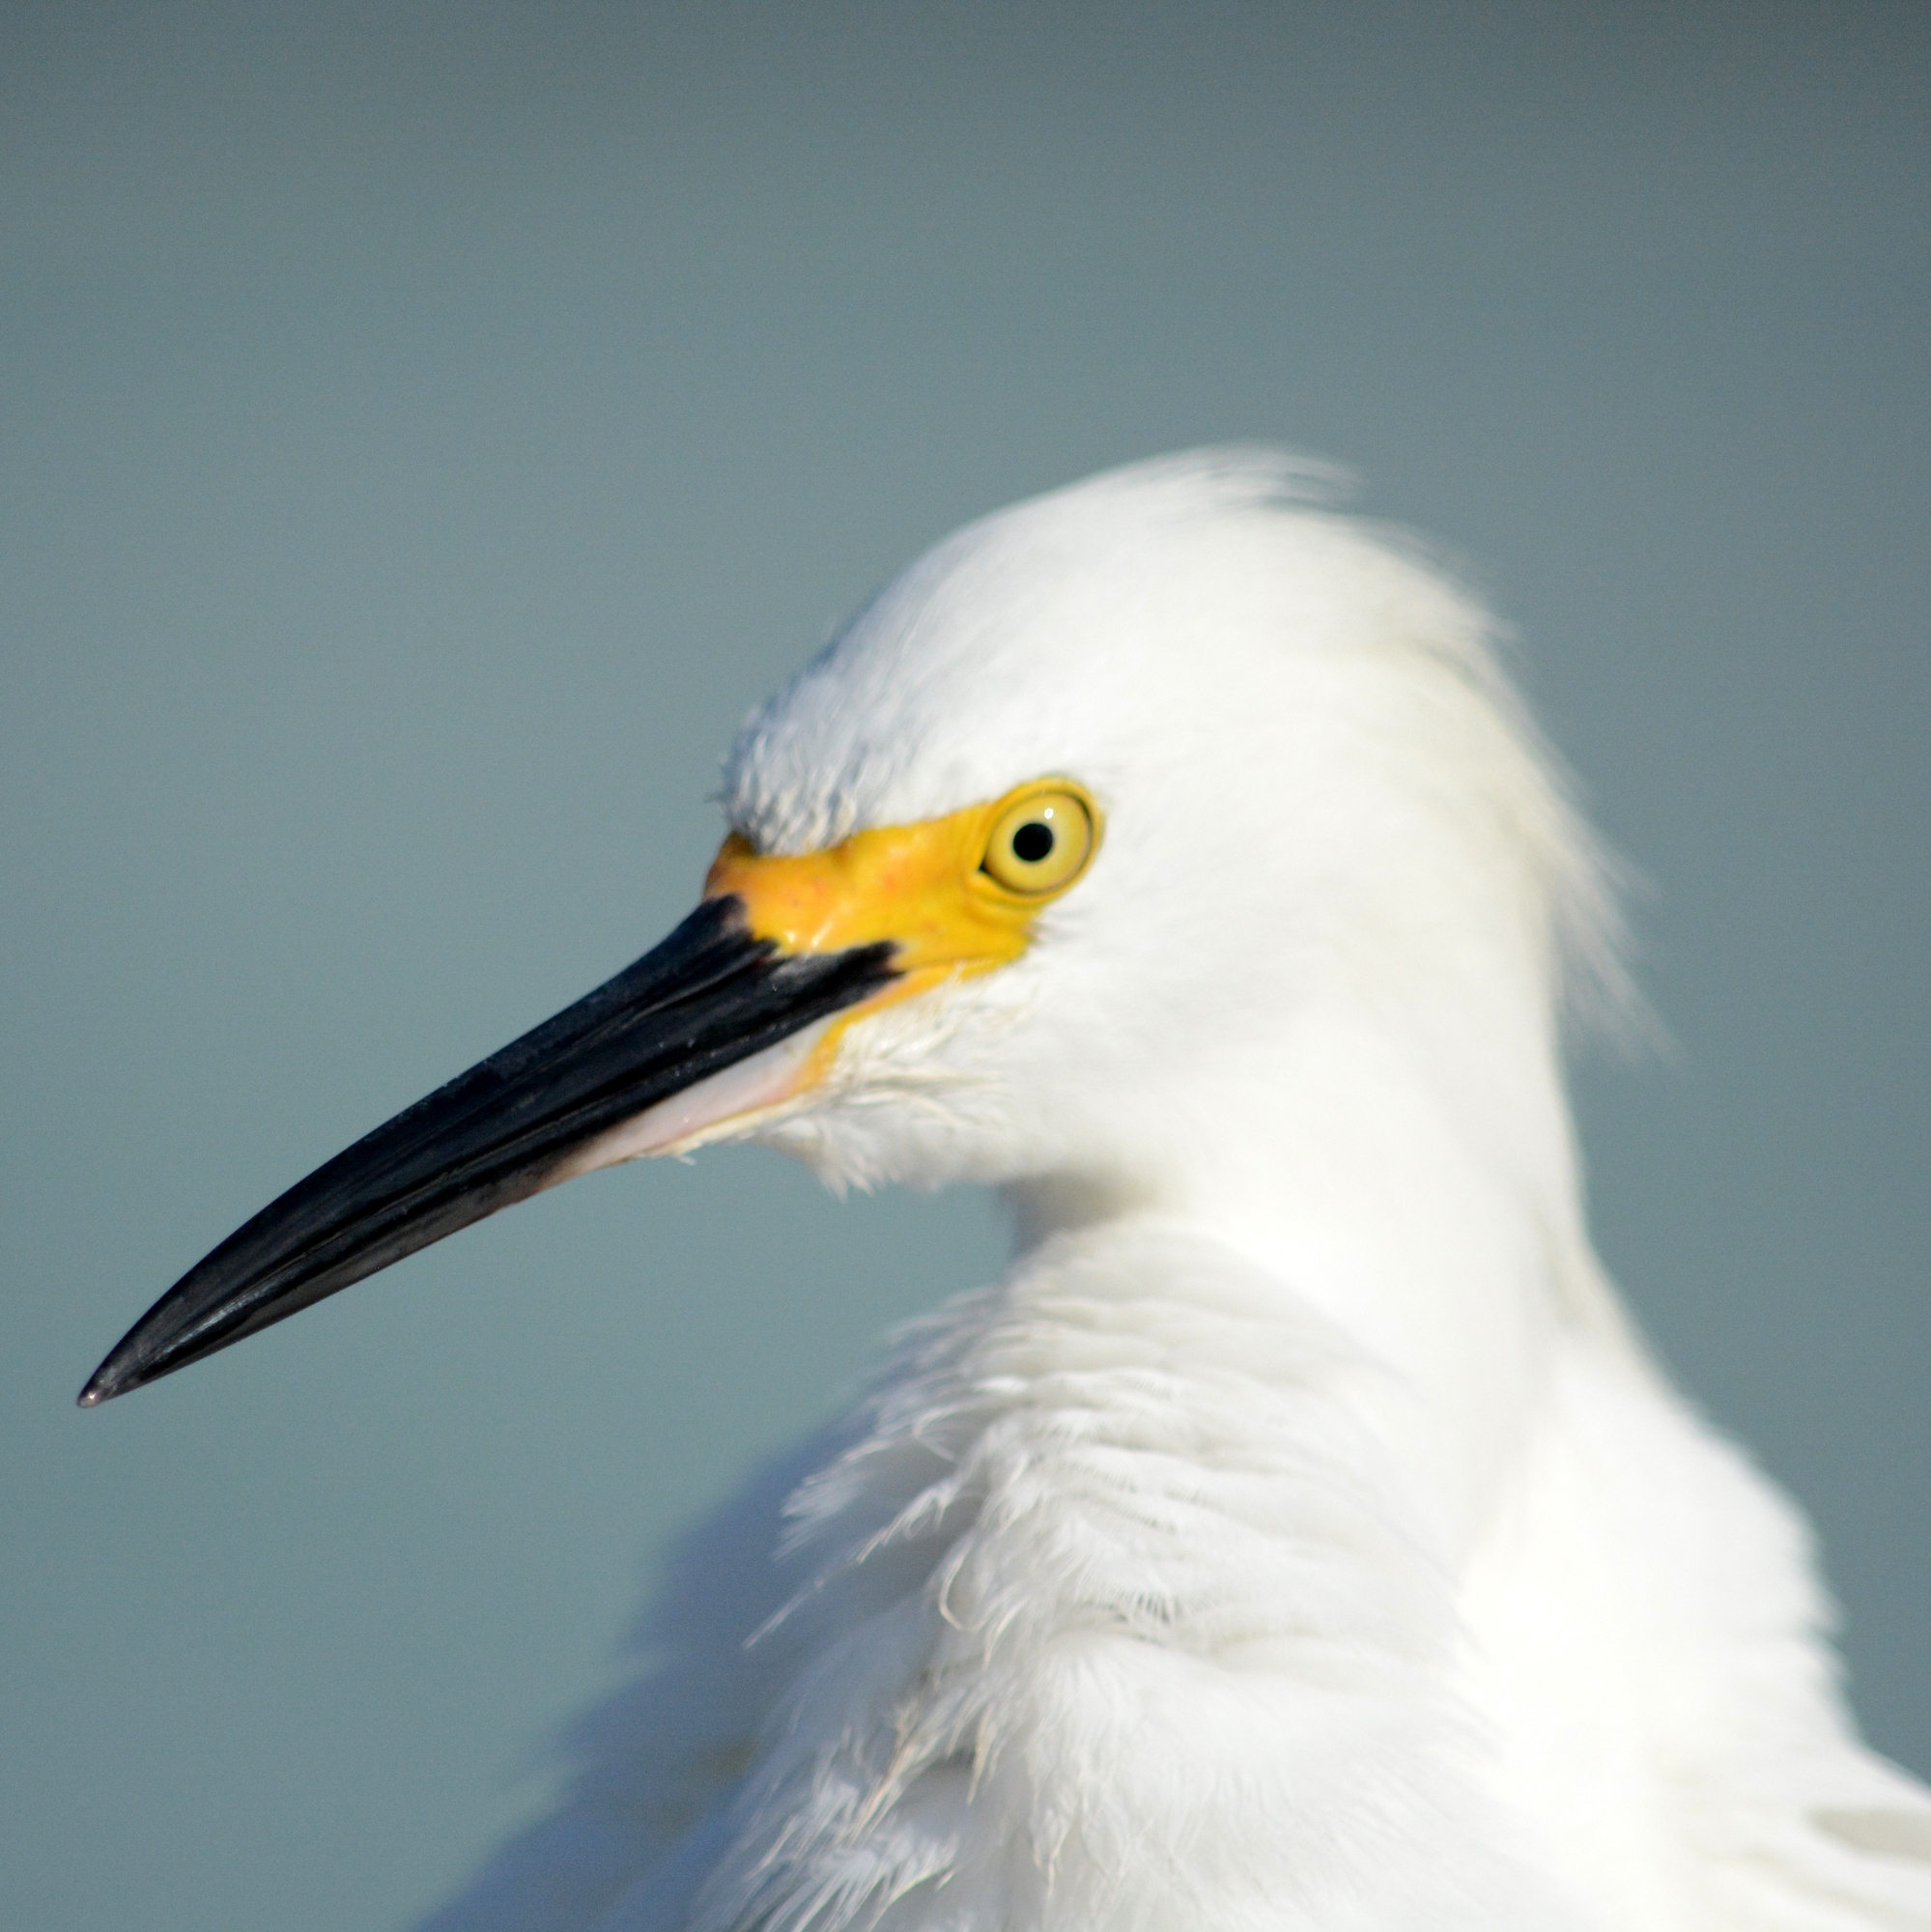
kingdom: Animalia
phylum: Chordata
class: Aves
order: Pelecaniformes
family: Ardeidae
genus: Egretta
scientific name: Egretta thula
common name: Snowy egret
